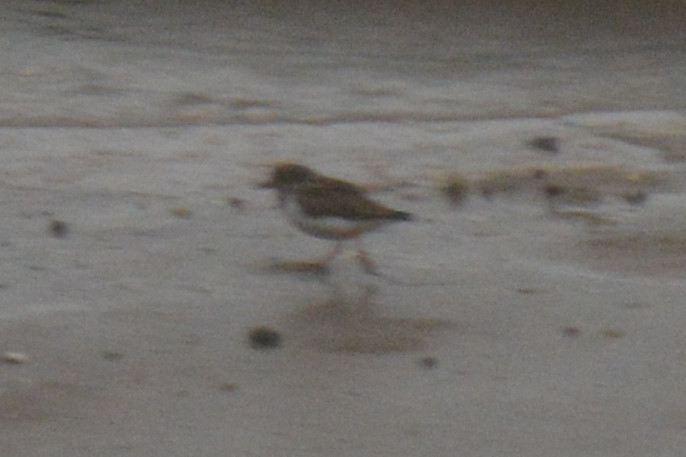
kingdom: Animalia
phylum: Chordata
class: Aves
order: Charadriiformes
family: Charadriidae
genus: Charadrius
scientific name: Charadrius hiaticula
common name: Common ringed plover
